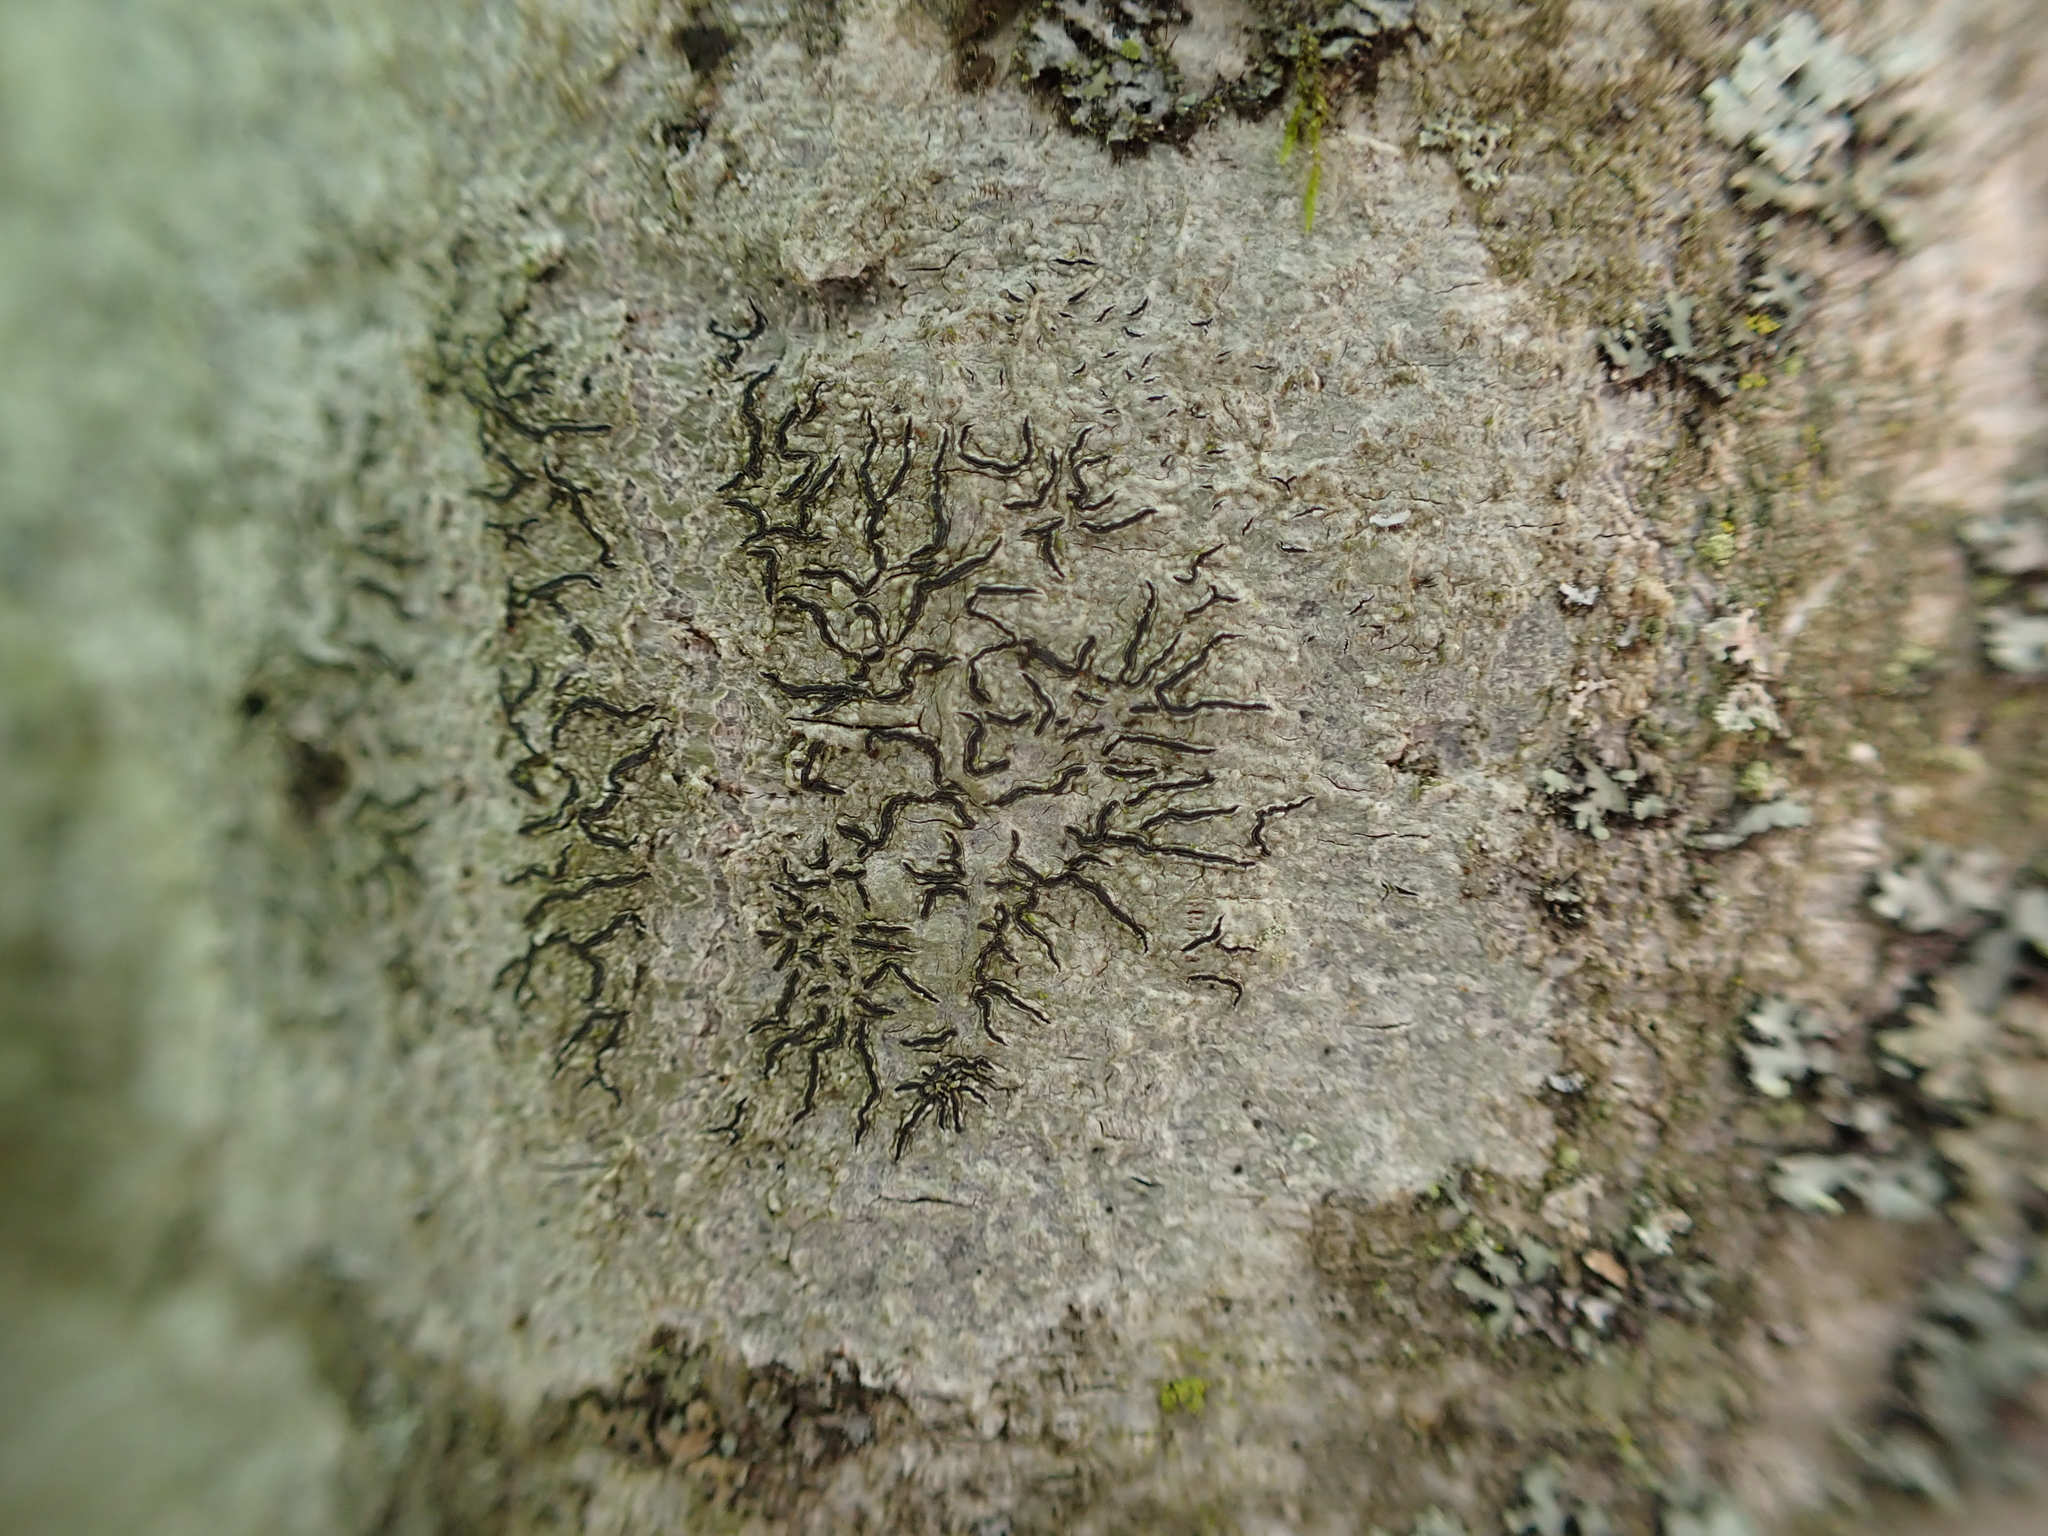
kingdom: Fungi
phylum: Ascomycota
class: Lecanoromycetes
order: Ostropales
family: Graphidaceae
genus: Graphis
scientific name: Graphis scripta
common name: Script lichen
